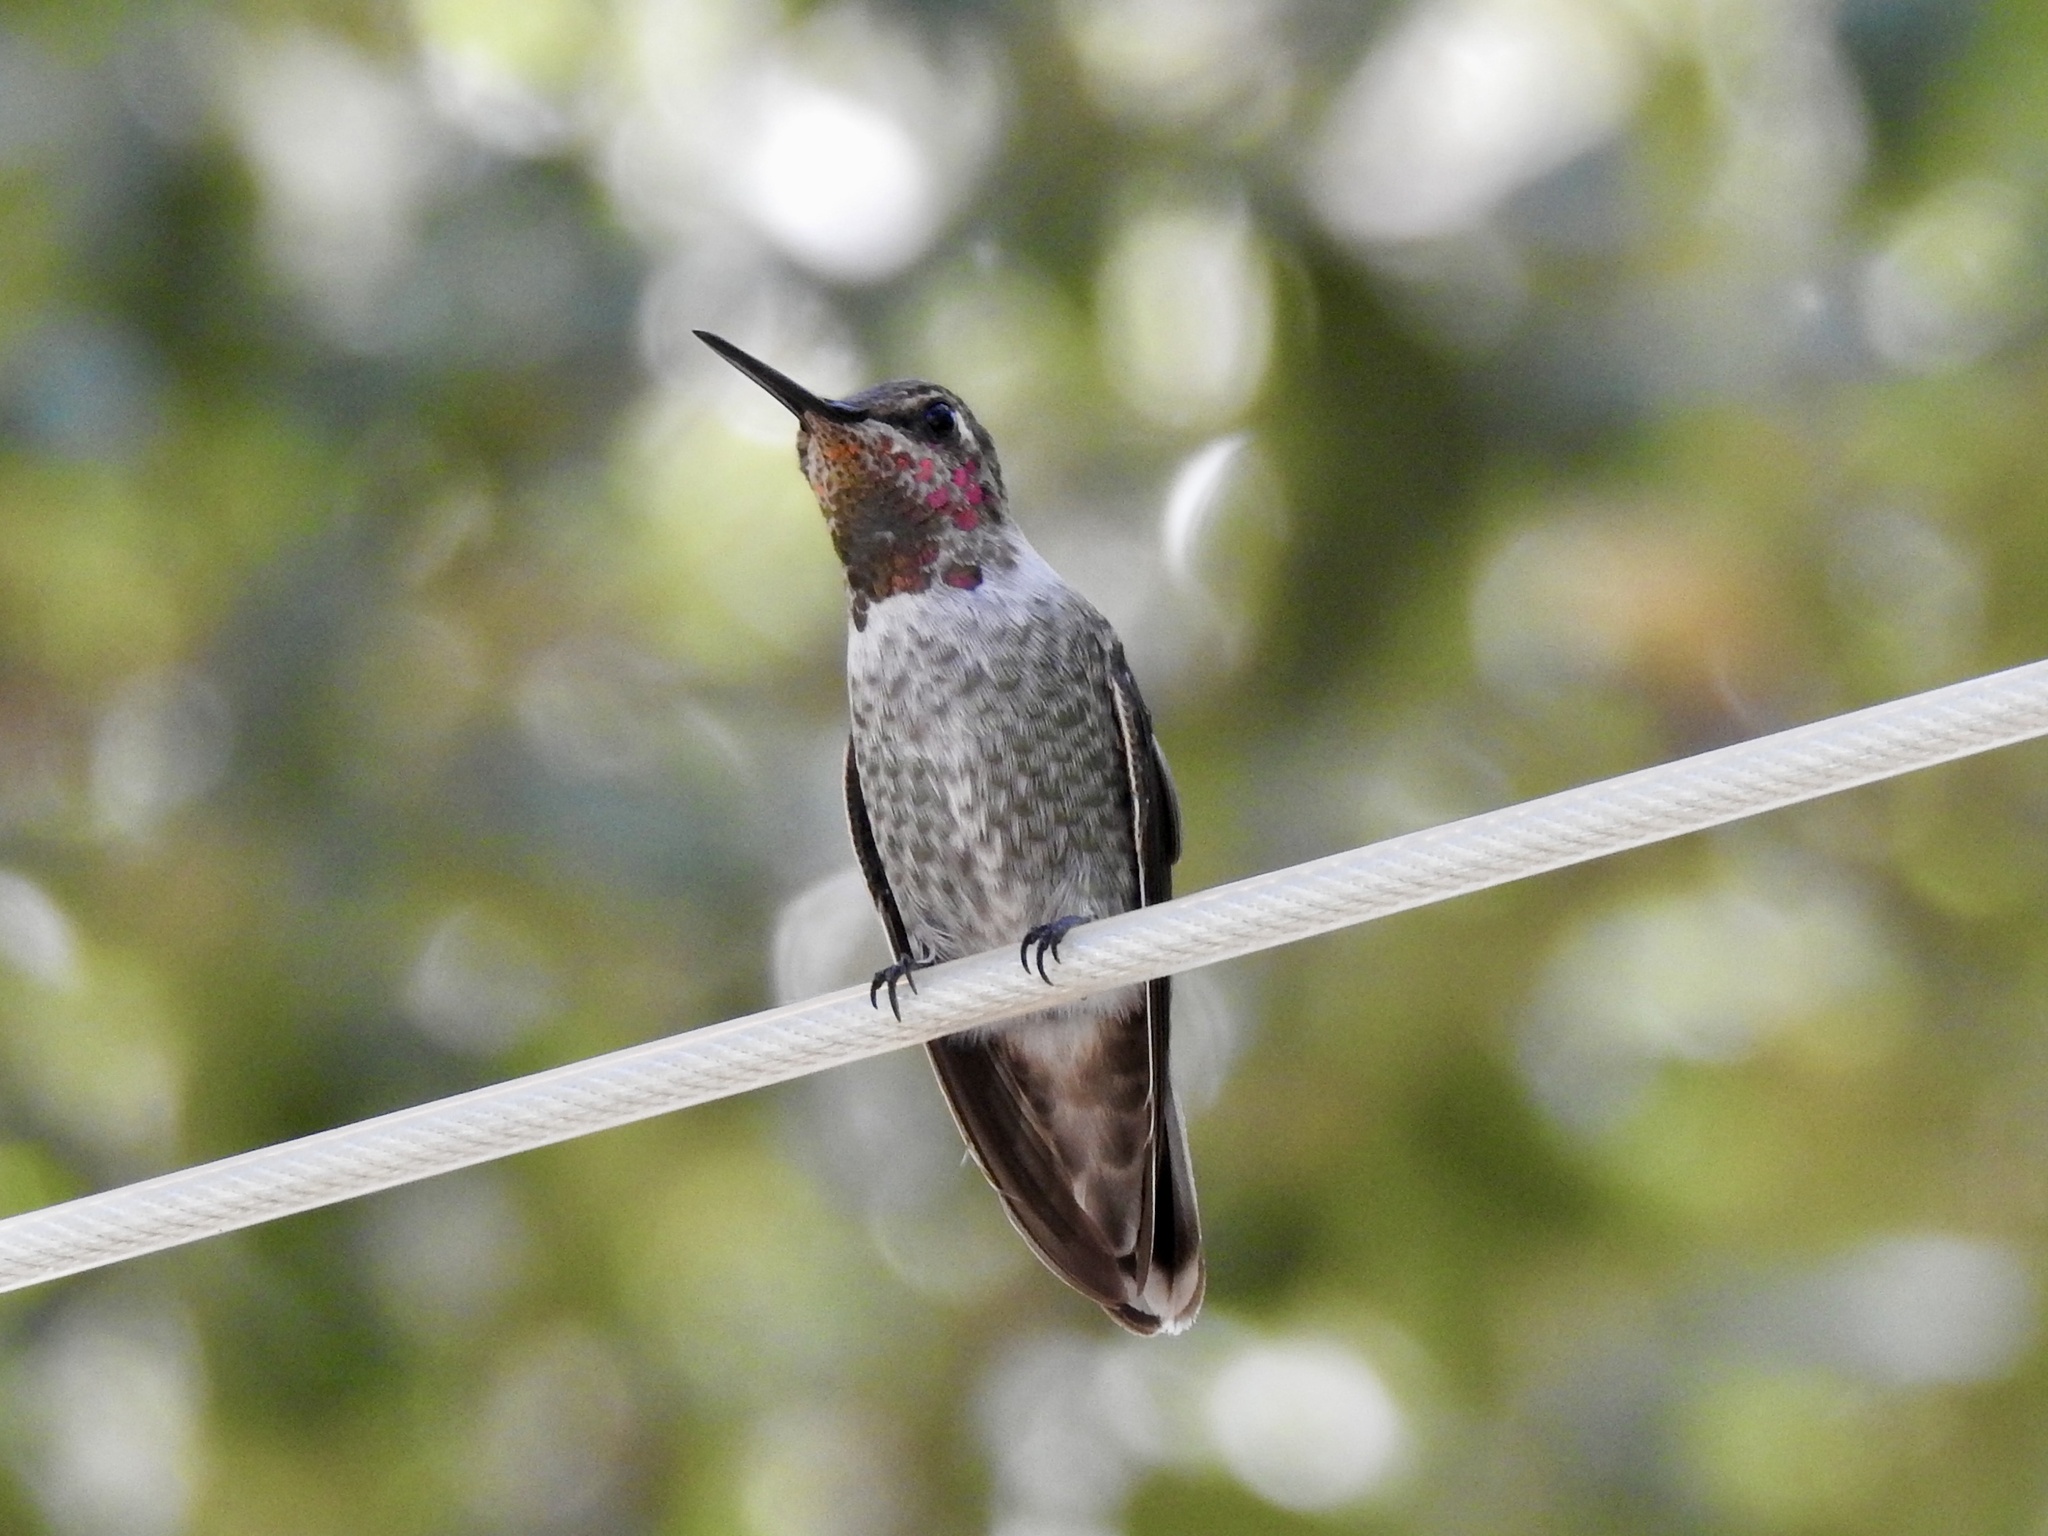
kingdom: Animalia
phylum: Chordata
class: Aves
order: Apodiformes
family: Trochilidae
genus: Calypte
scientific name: Calypte anna
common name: Anna's hummingbird
